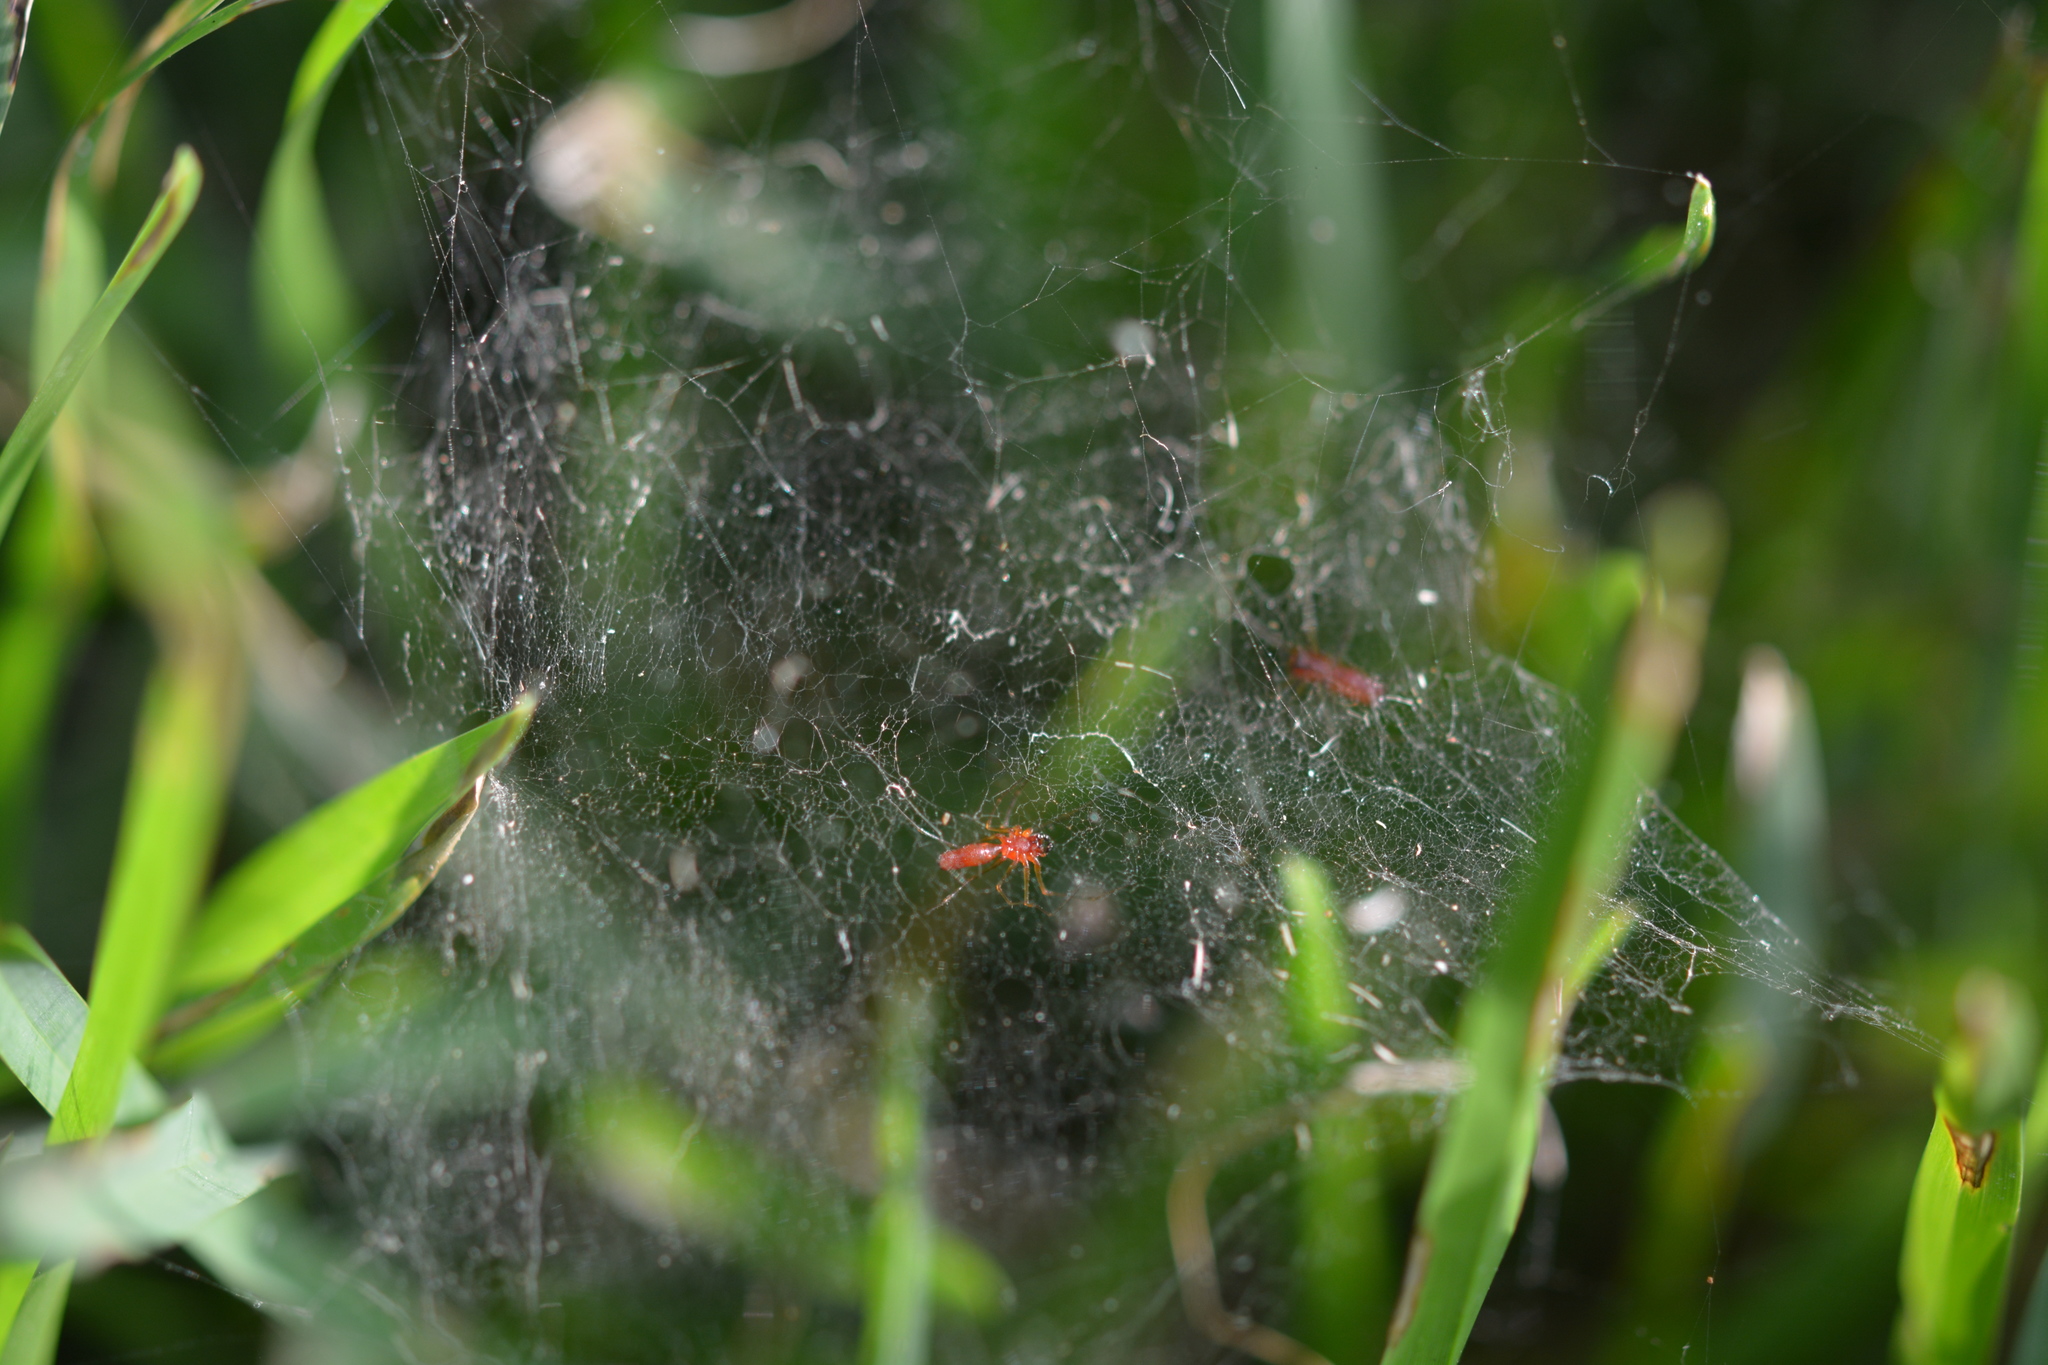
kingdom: Animalia
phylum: Arthropoda
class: Arachnida
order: Araneae
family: Linyphiidae
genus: Florinda
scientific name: Florinda coccinea
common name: Black-tailed red sheetweaver
